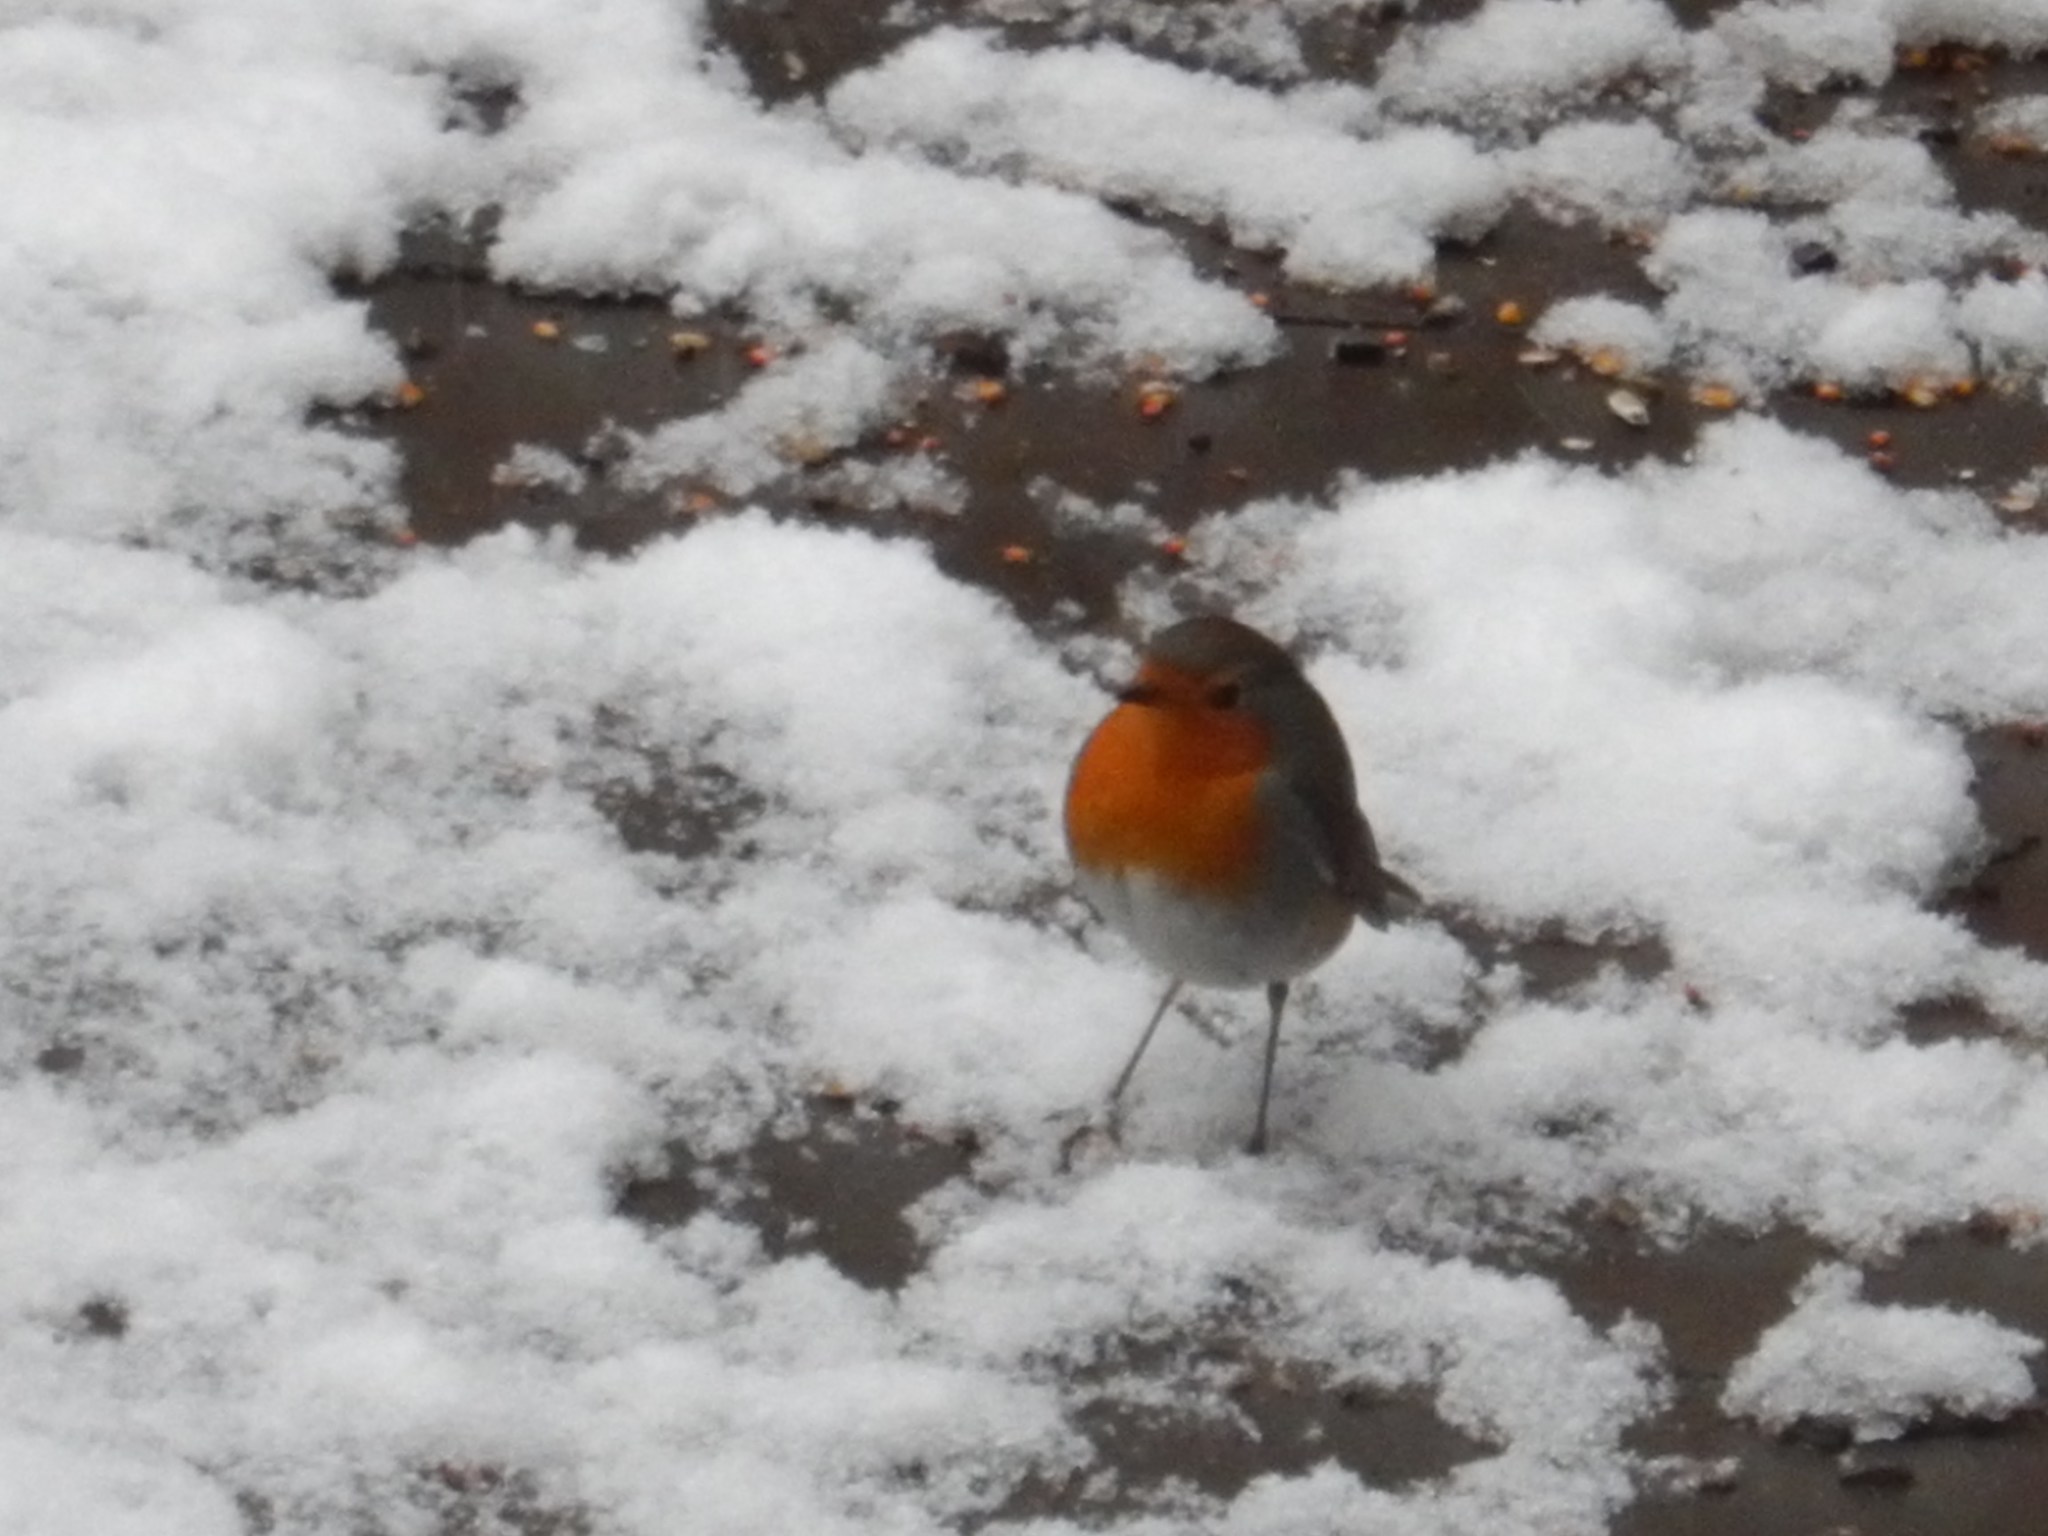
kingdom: Animalia
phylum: Chordata
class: Aves
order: Passeriformes
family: Muscicapidae
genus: Erithacus
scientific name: Erithacus rubecula
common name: European robin
